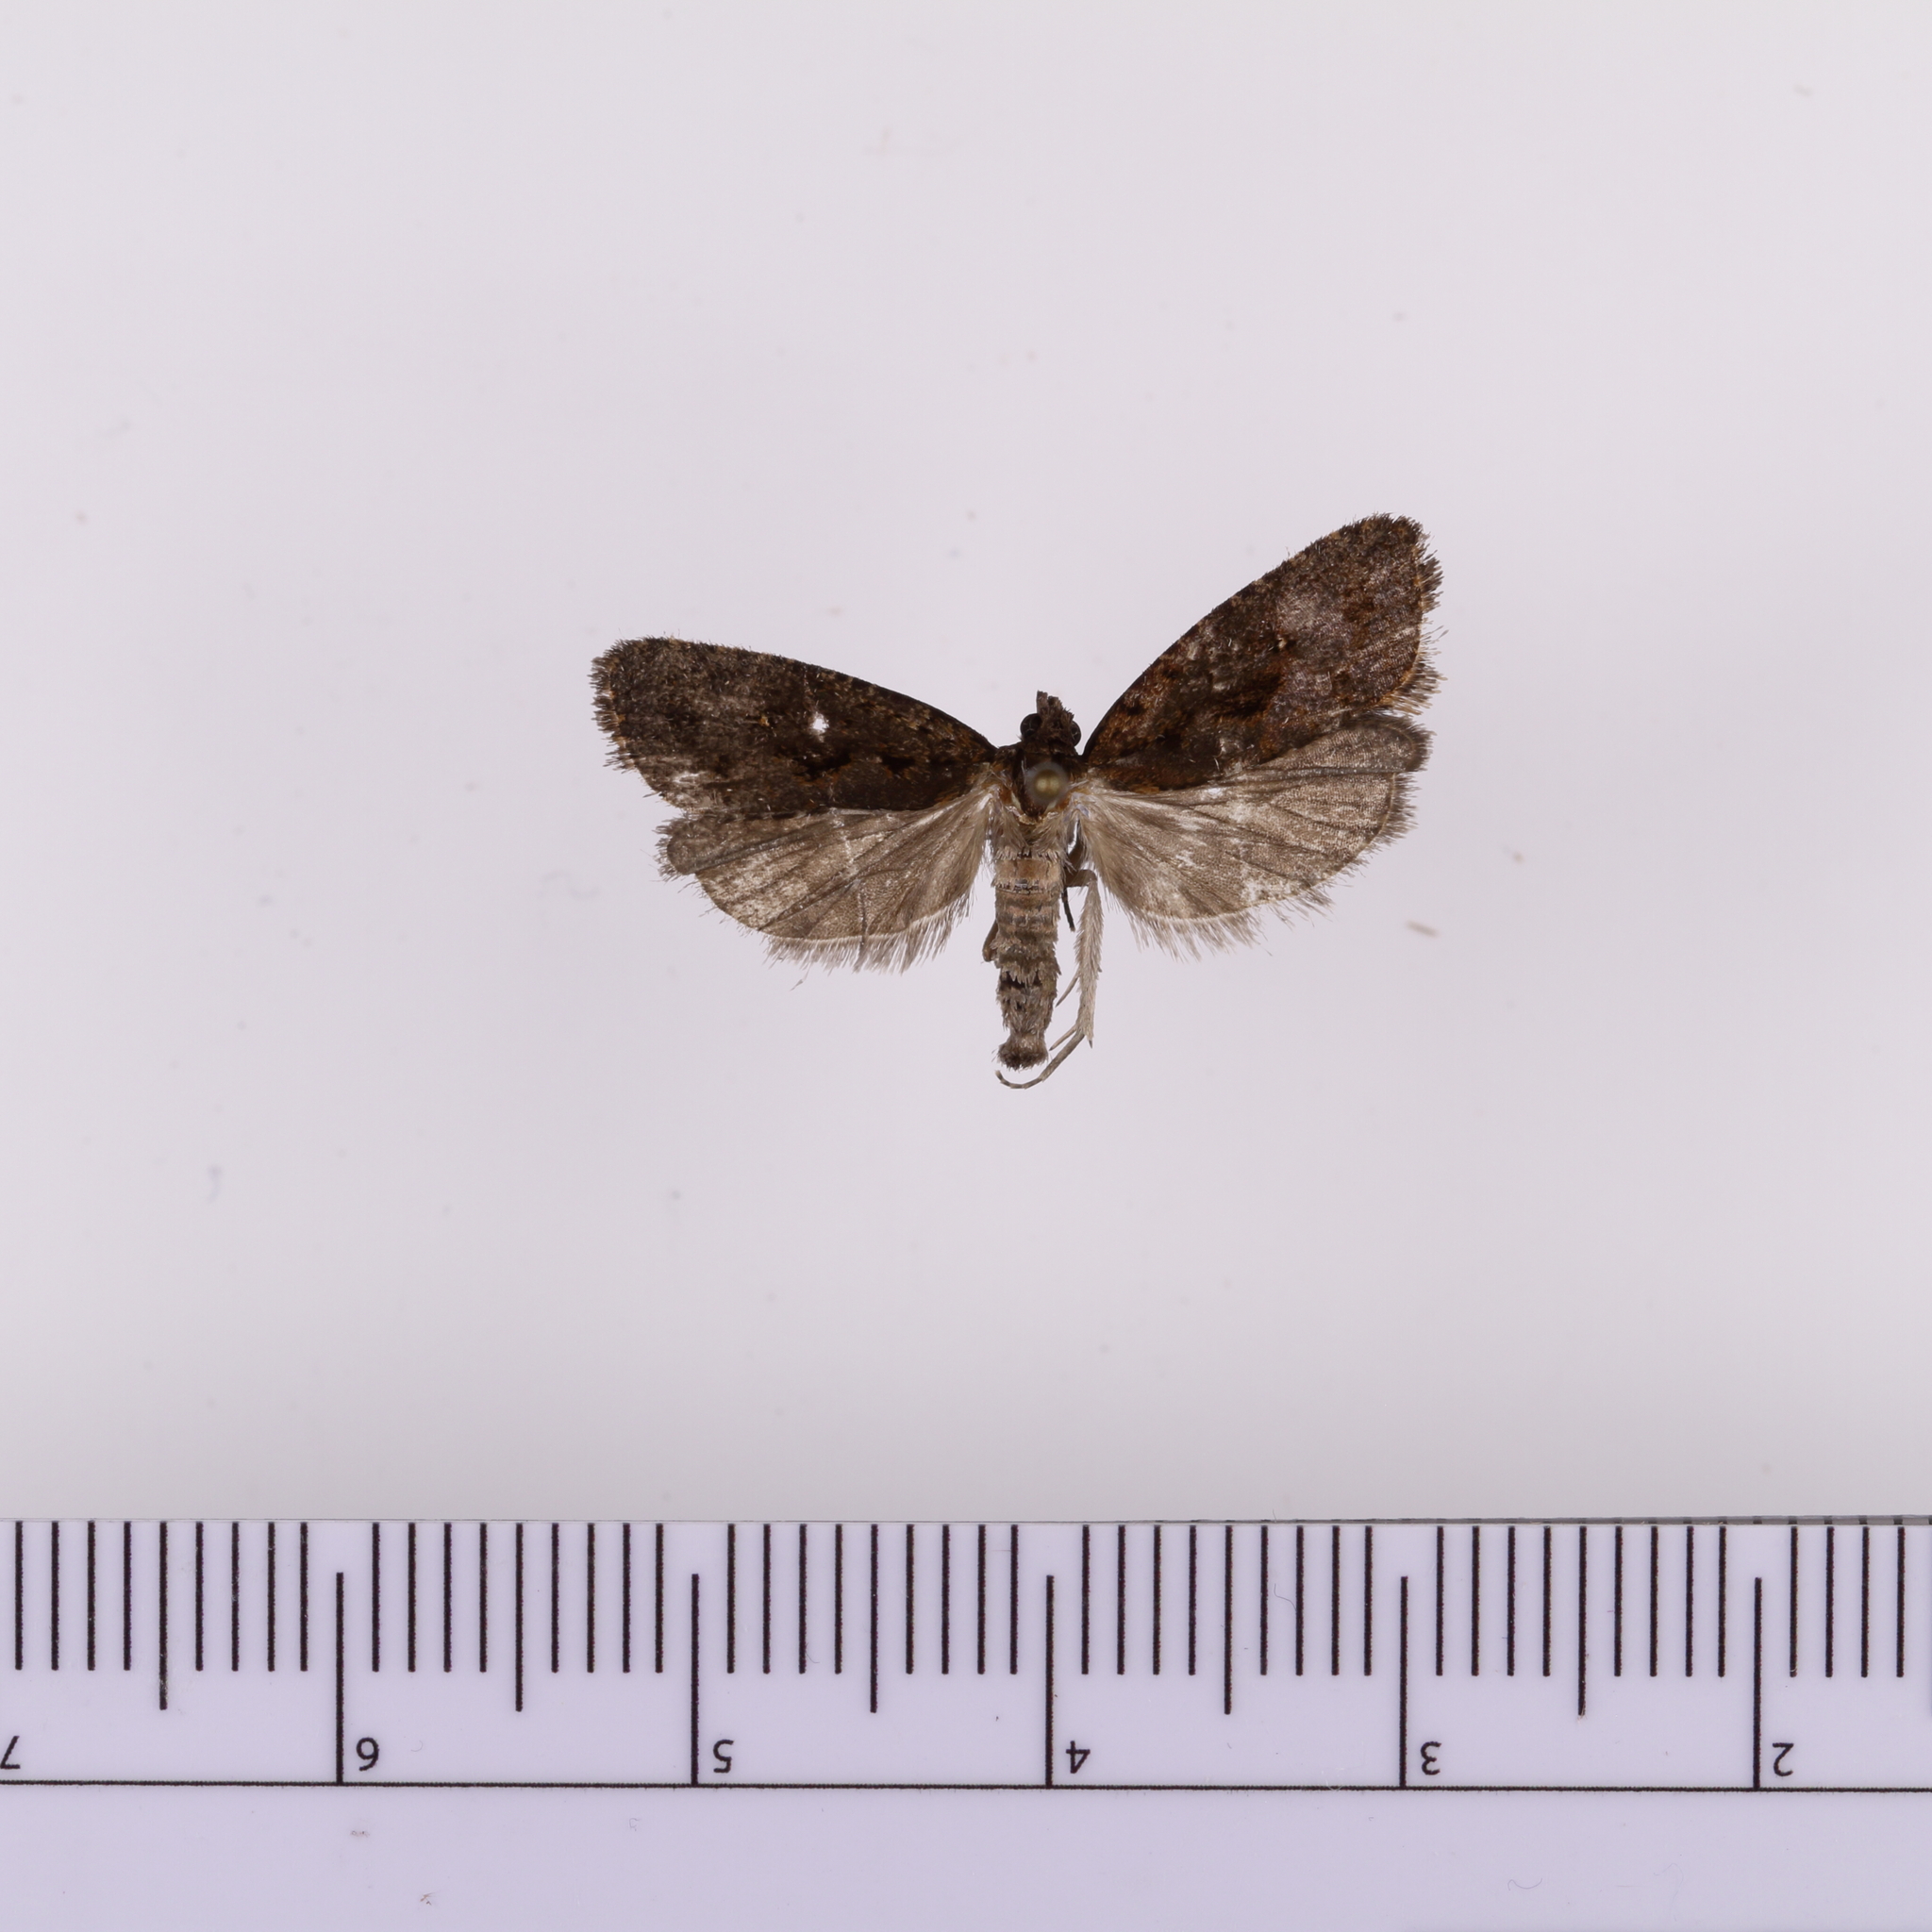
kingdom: Animalia
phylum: Arthropoda
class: Insecta
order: Lepidoptera
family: Tortricidae
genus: Cryptaspasma
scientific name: Cryptaspasma querula
